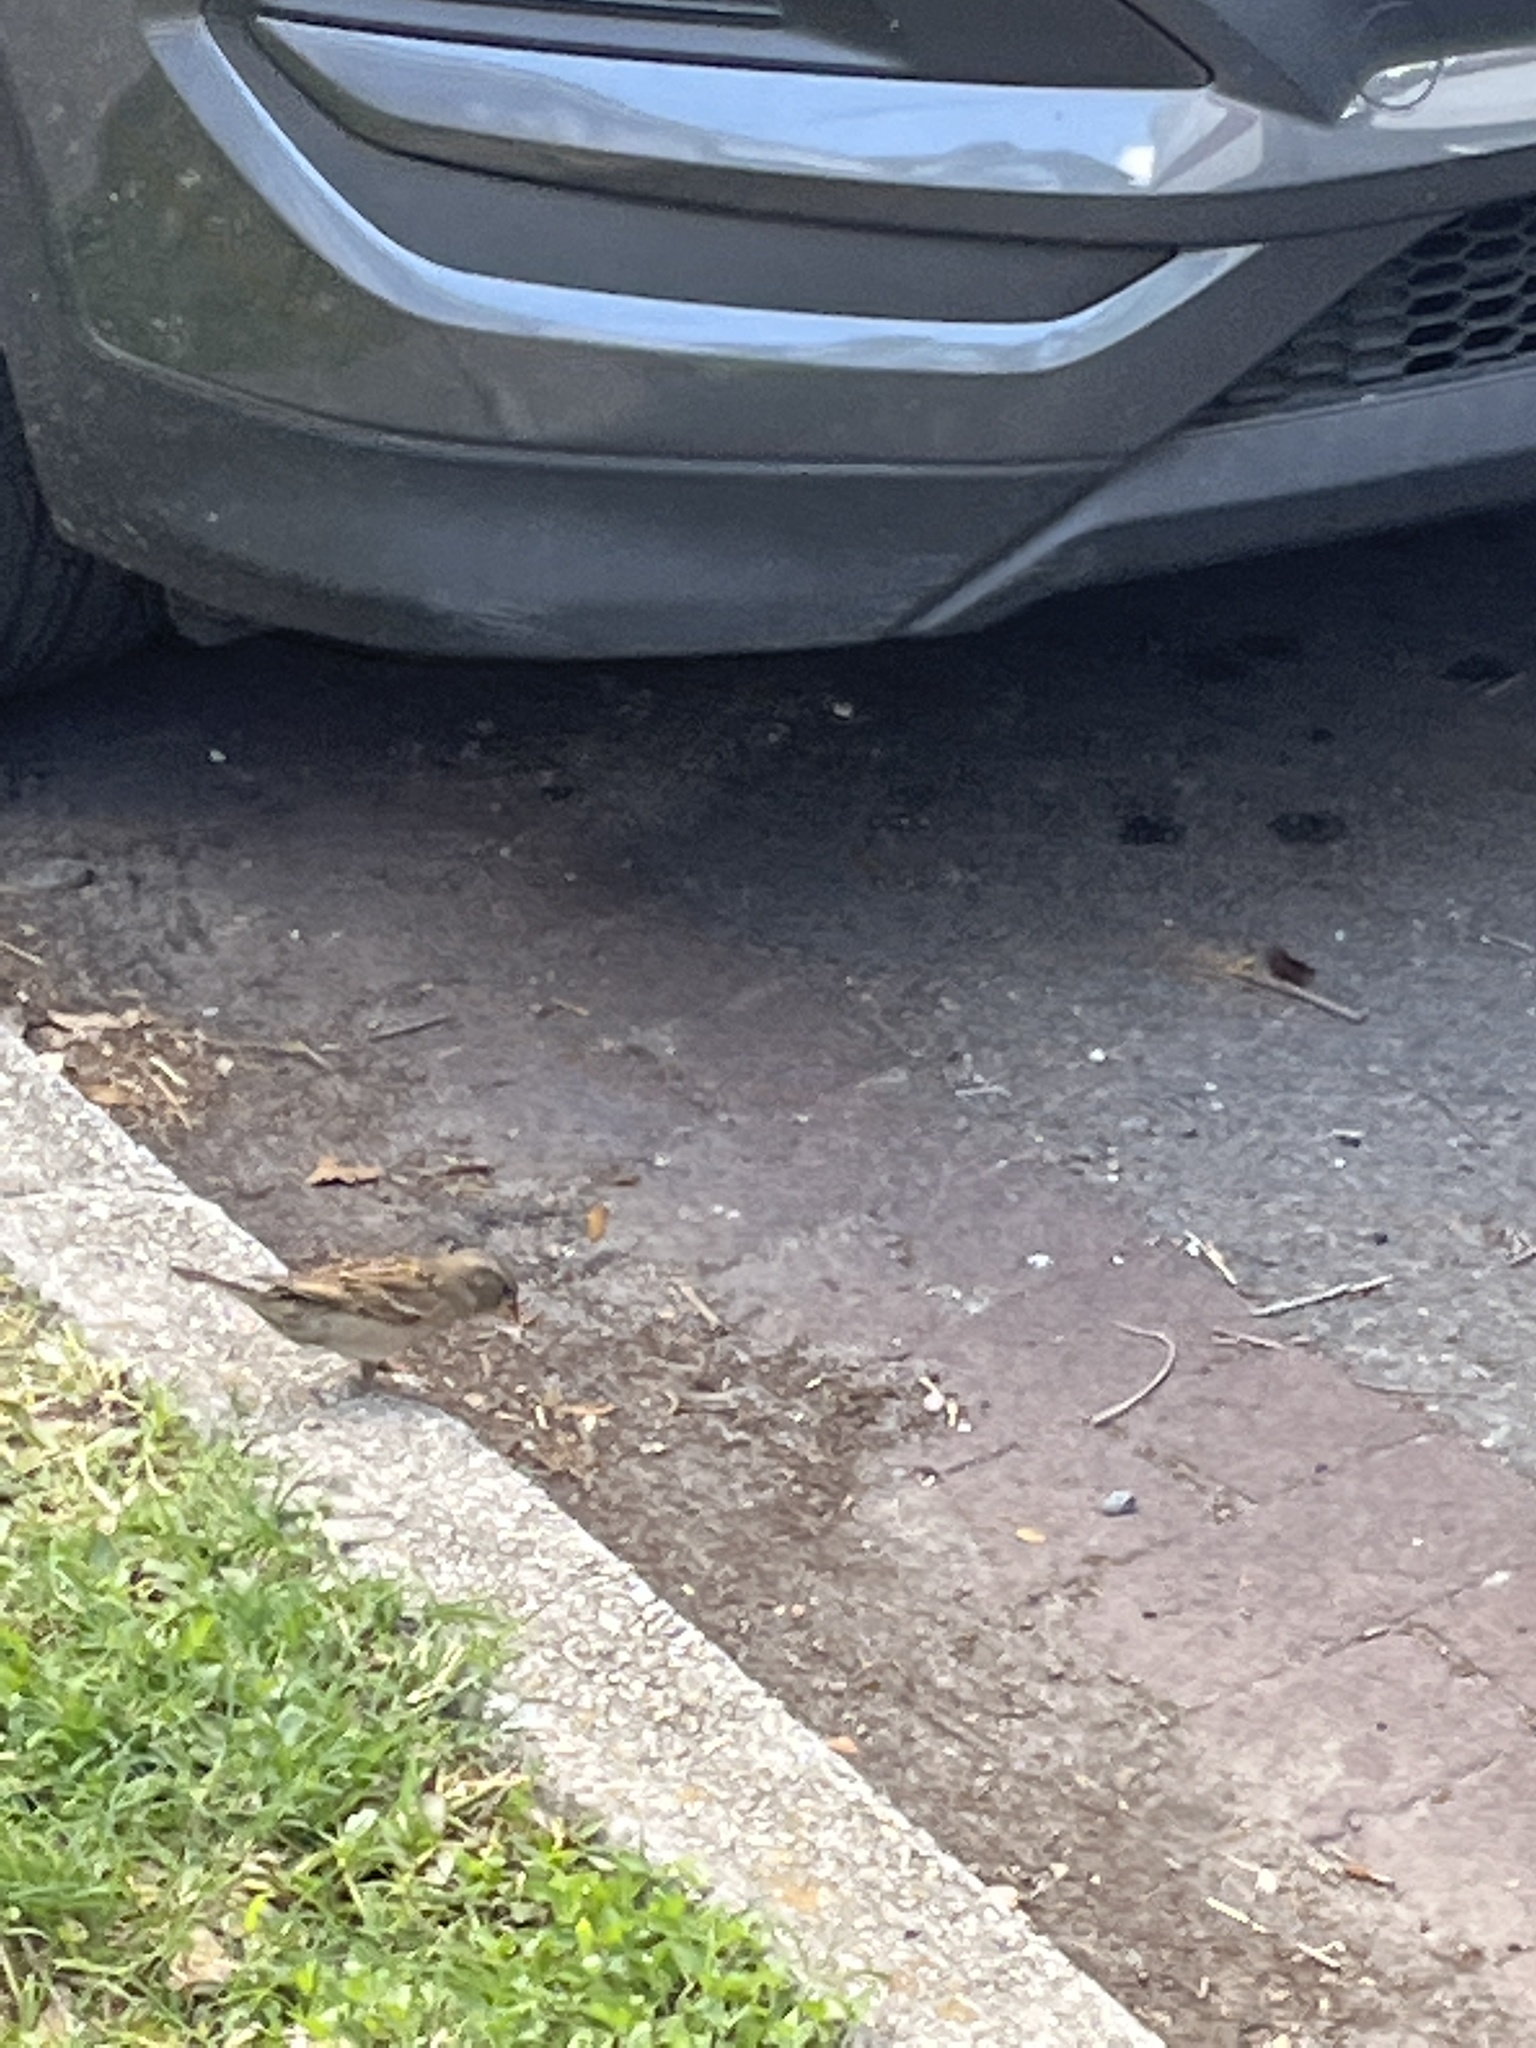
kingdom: Animalia
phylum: Chordata
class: Aves
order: Passeriformes
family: Passeridae
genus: Passer
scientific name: Passer domesticus
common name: House sparrow
